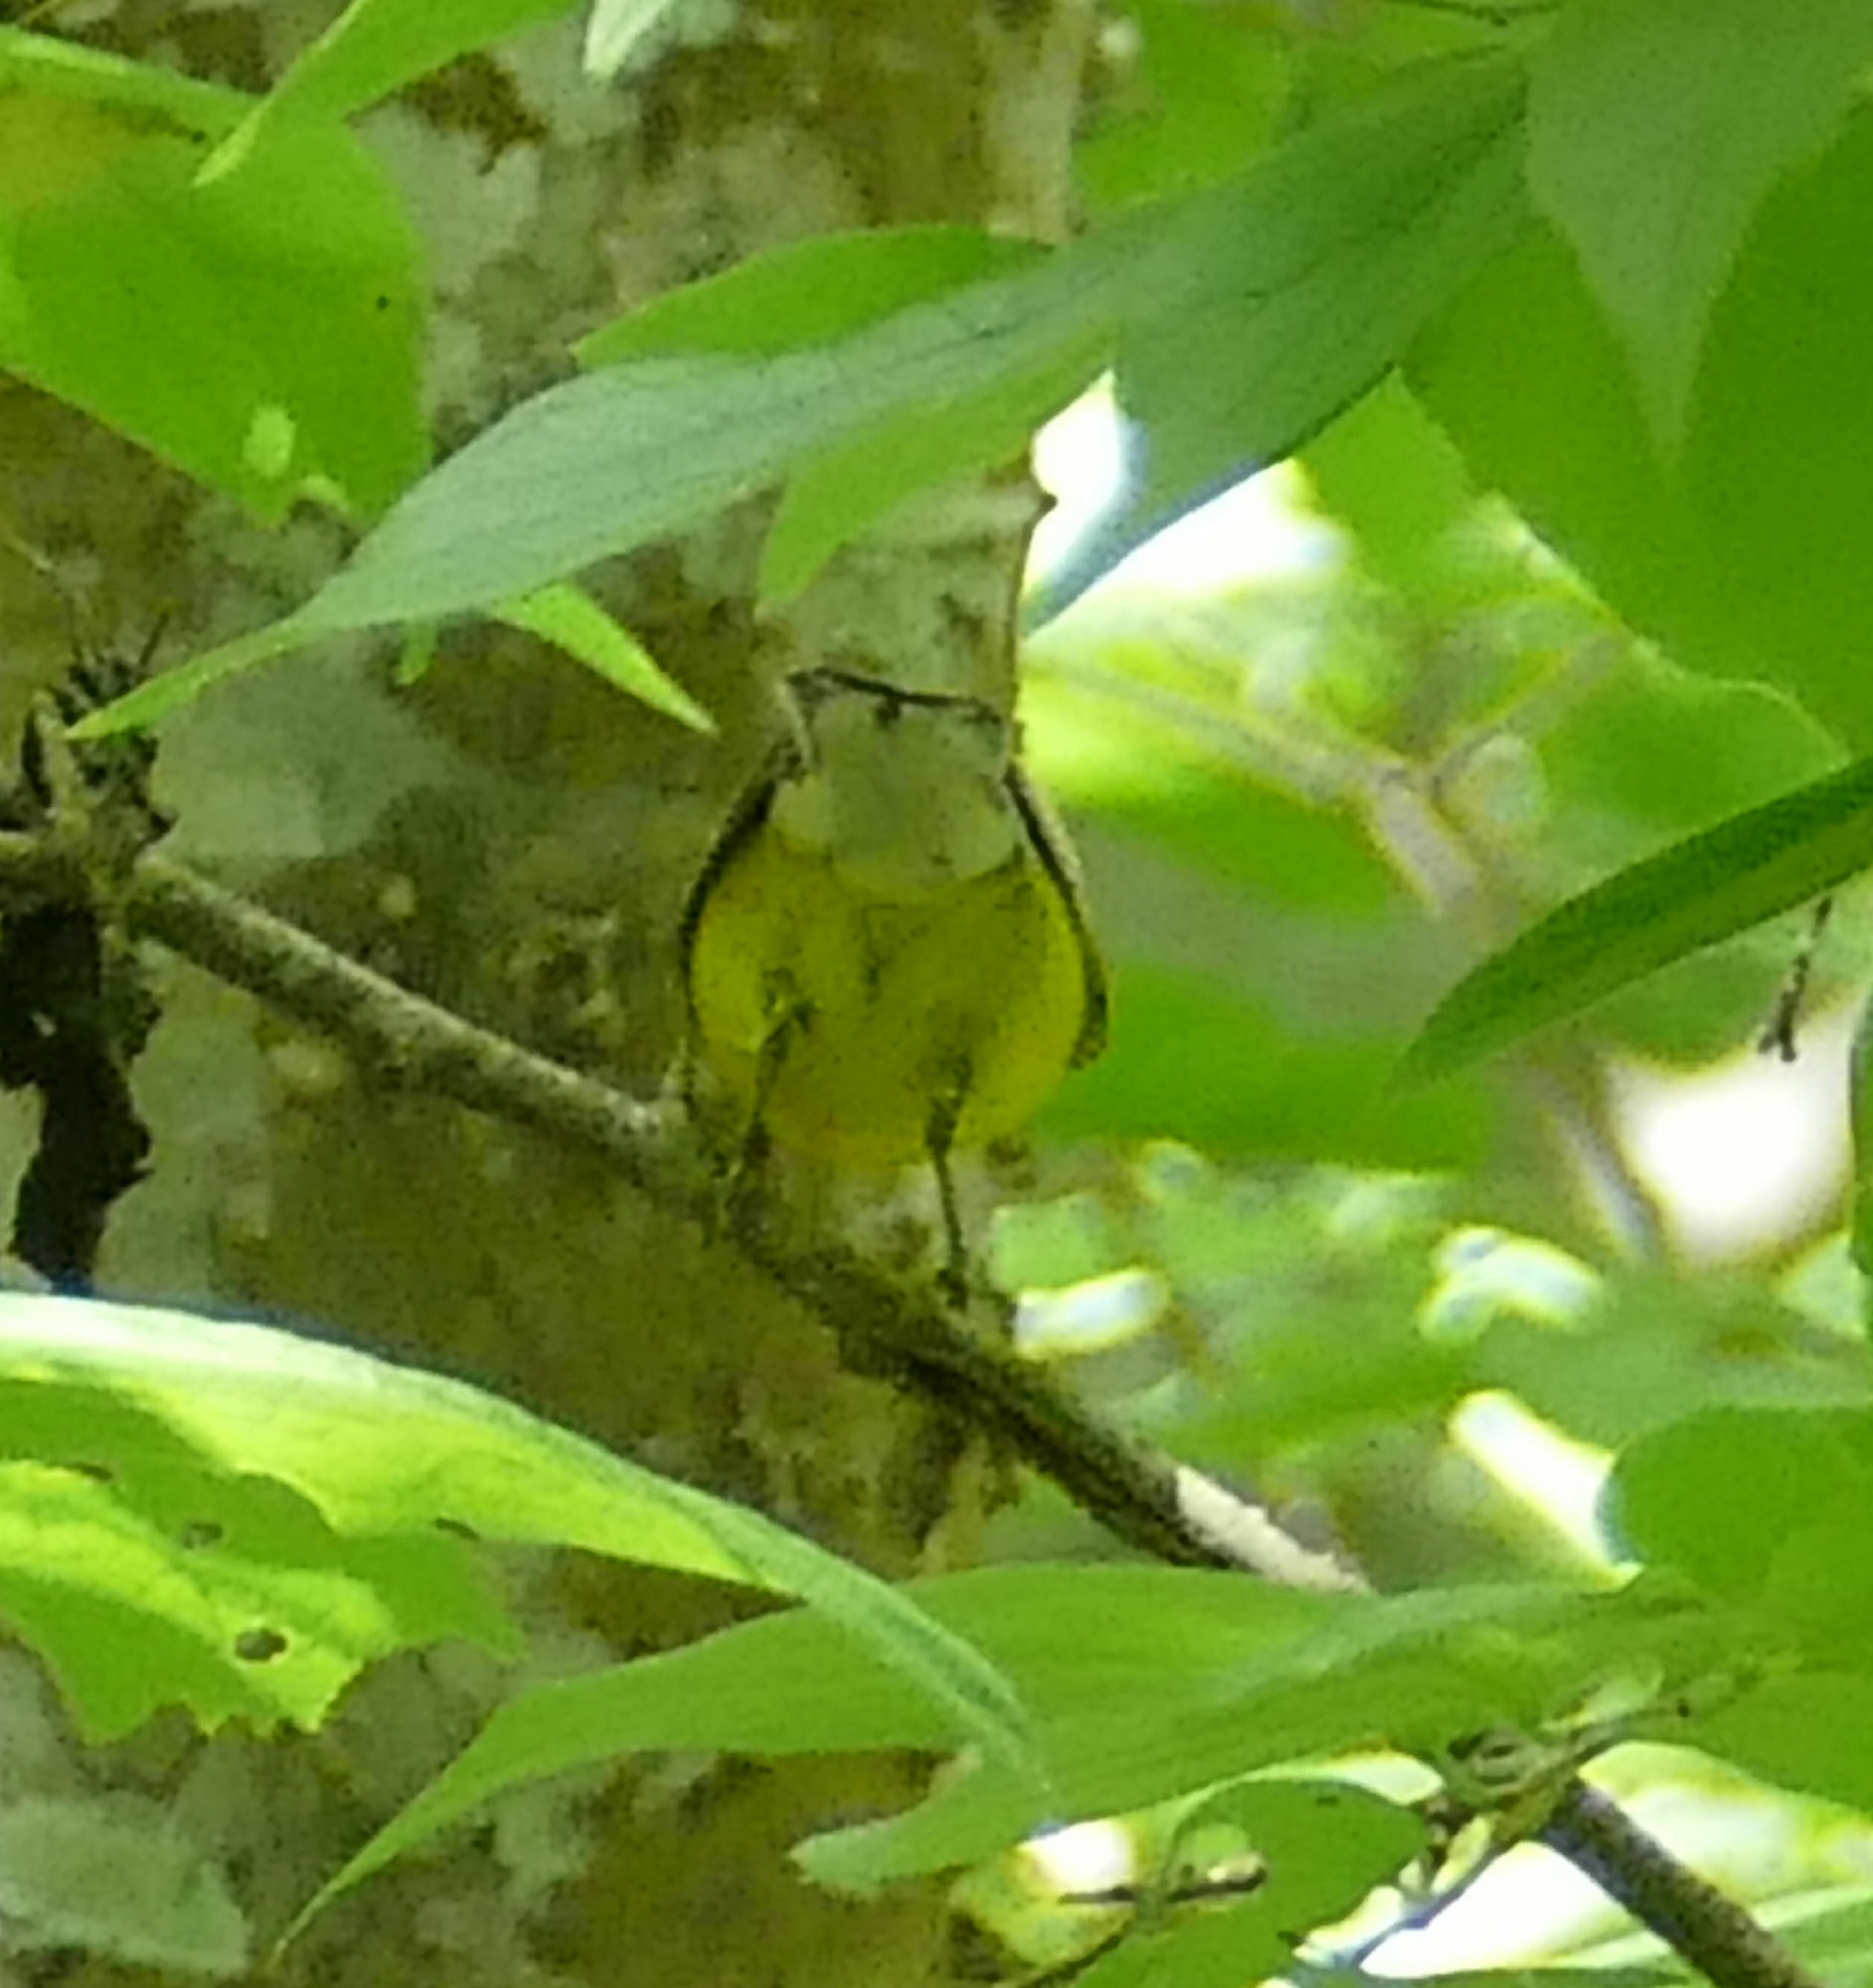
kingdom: Animalia
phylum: Chordata
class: Aves
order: Passeriformes
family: Parulidae
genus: Vermivora
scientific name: Vermivora cyanoptera
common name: Blue-winged warbler
